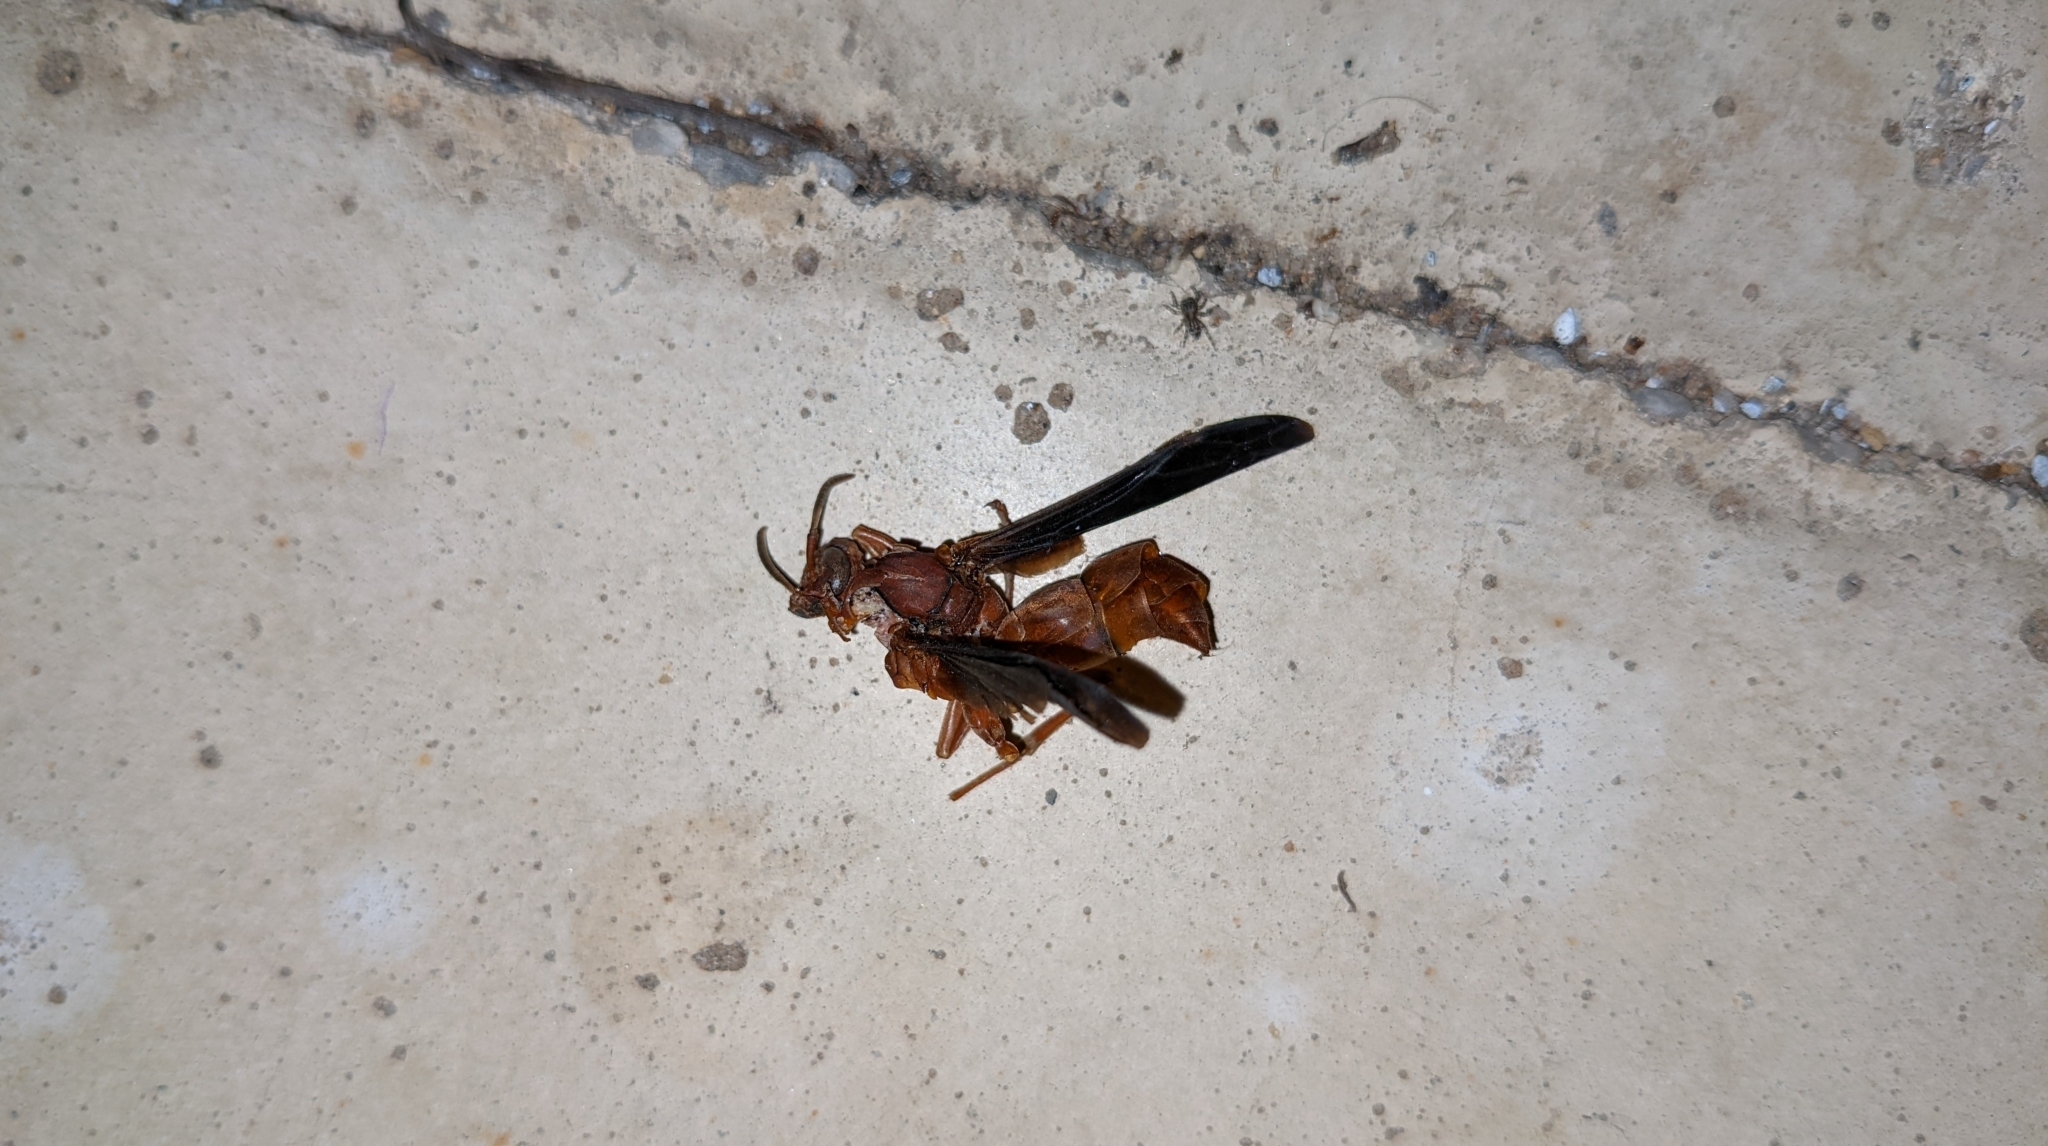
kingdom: Animalia
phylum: Arthropoda
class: Insecta
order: Hymenoptera
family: Vespidae
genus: Fuscopolistes
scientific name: Fuscopolistes
